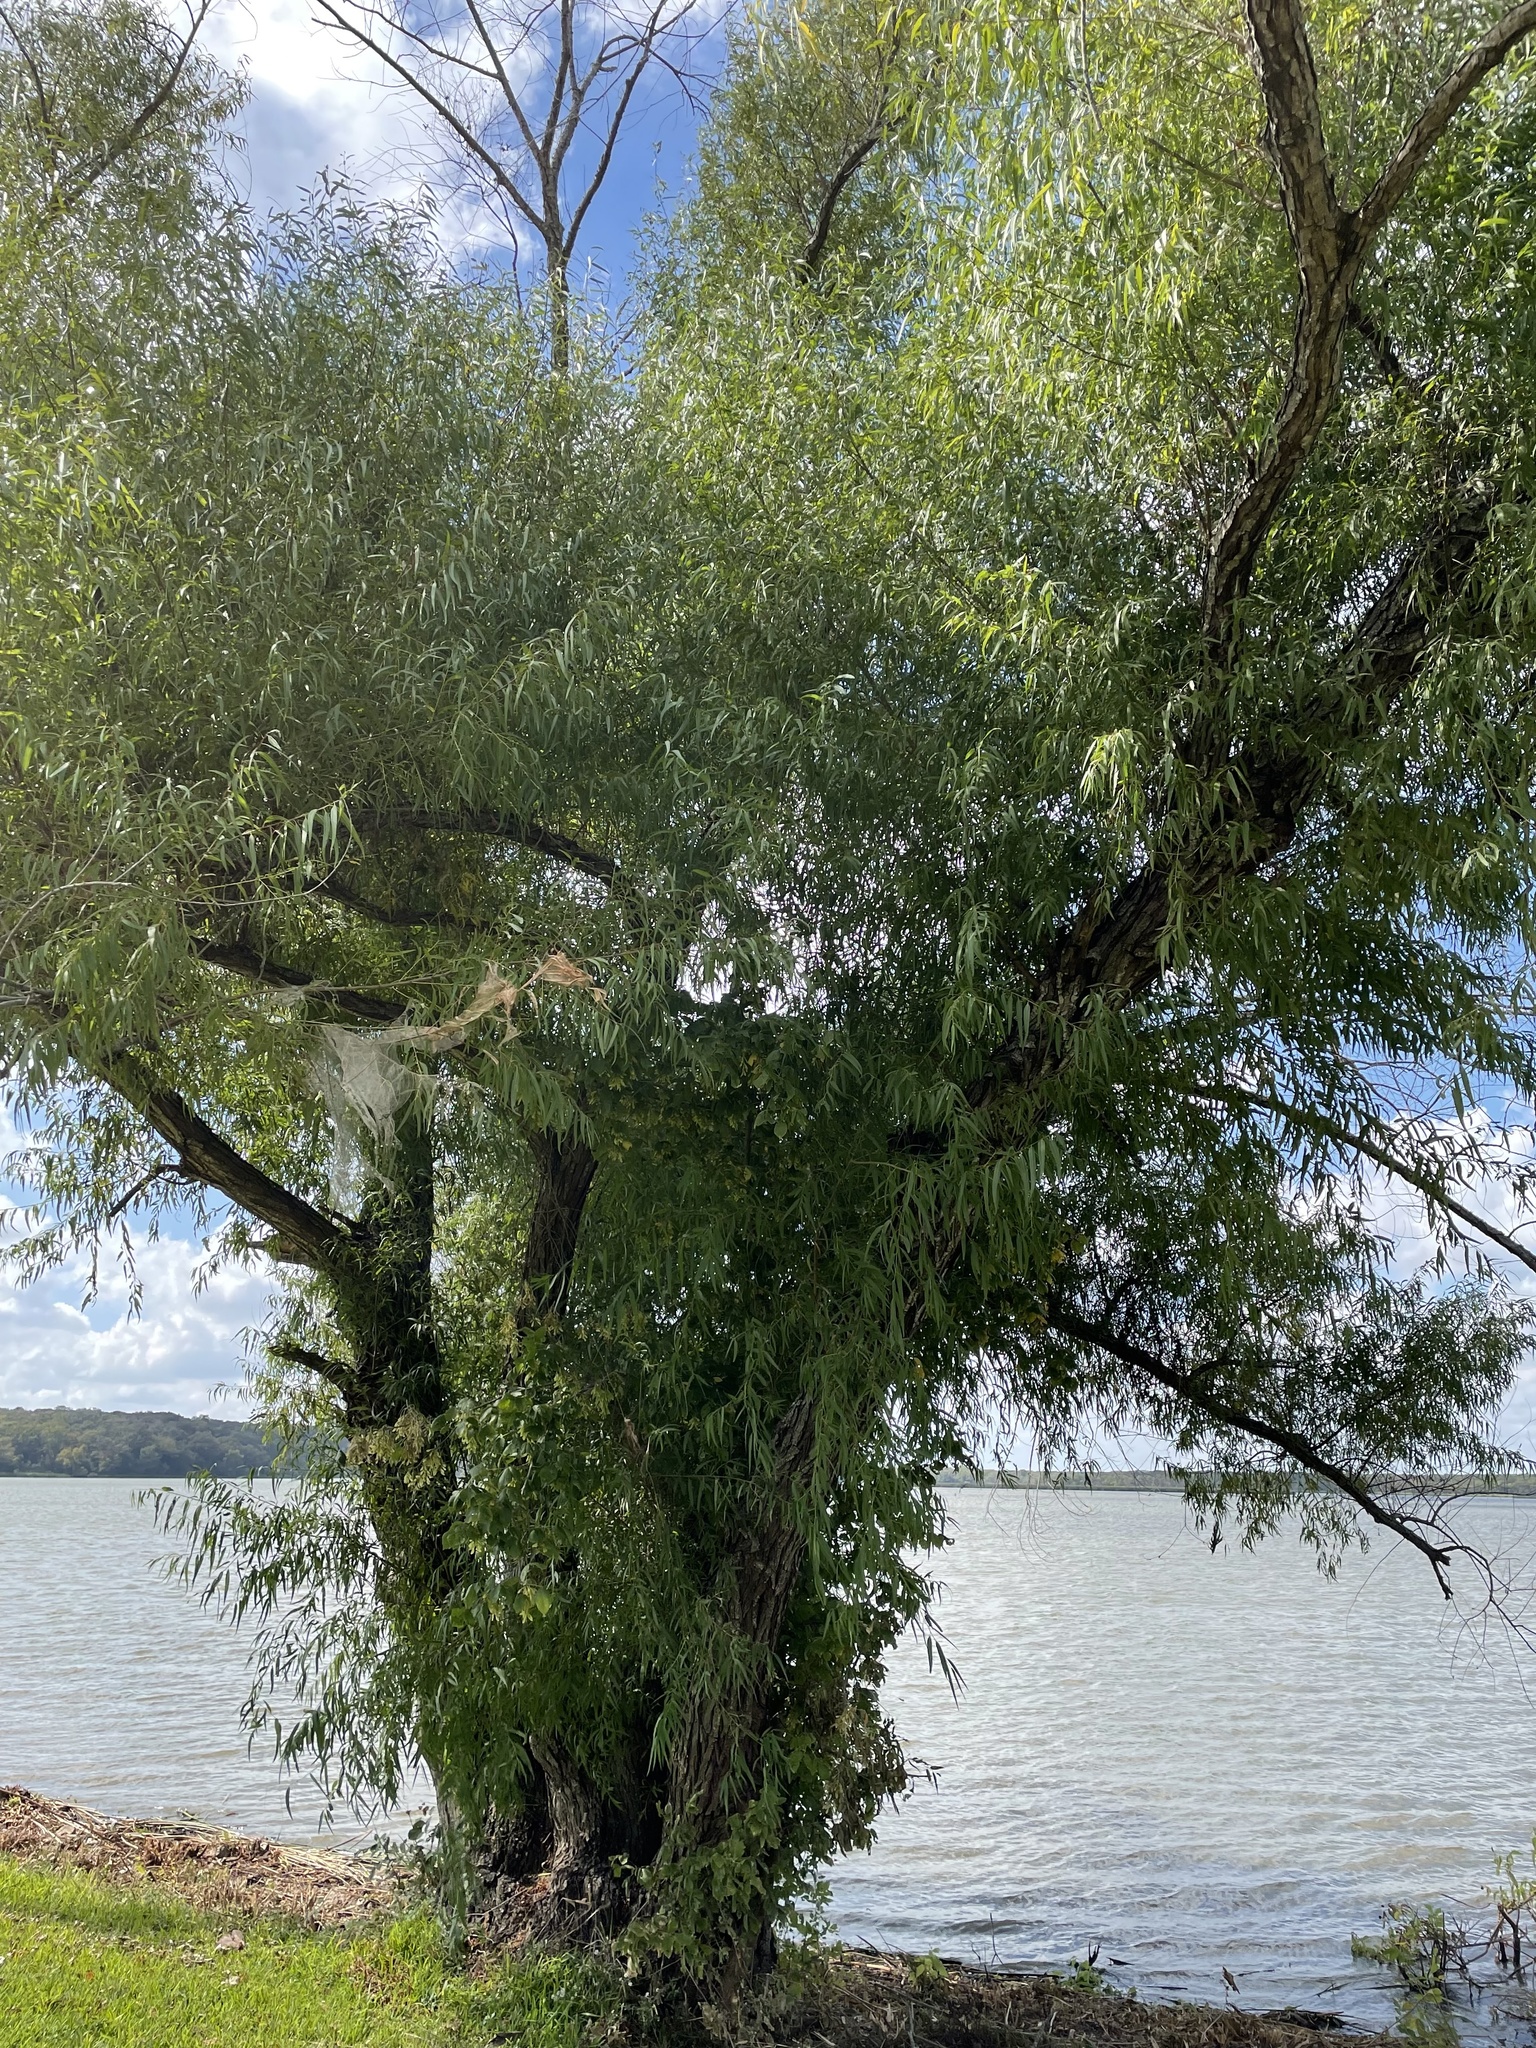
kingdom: Plantae
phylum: Tracheophyta
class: Magnoliopsida
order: Malpighiales
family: Salicaceae
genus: Salix
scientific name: Salix nigra
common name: Black willow
